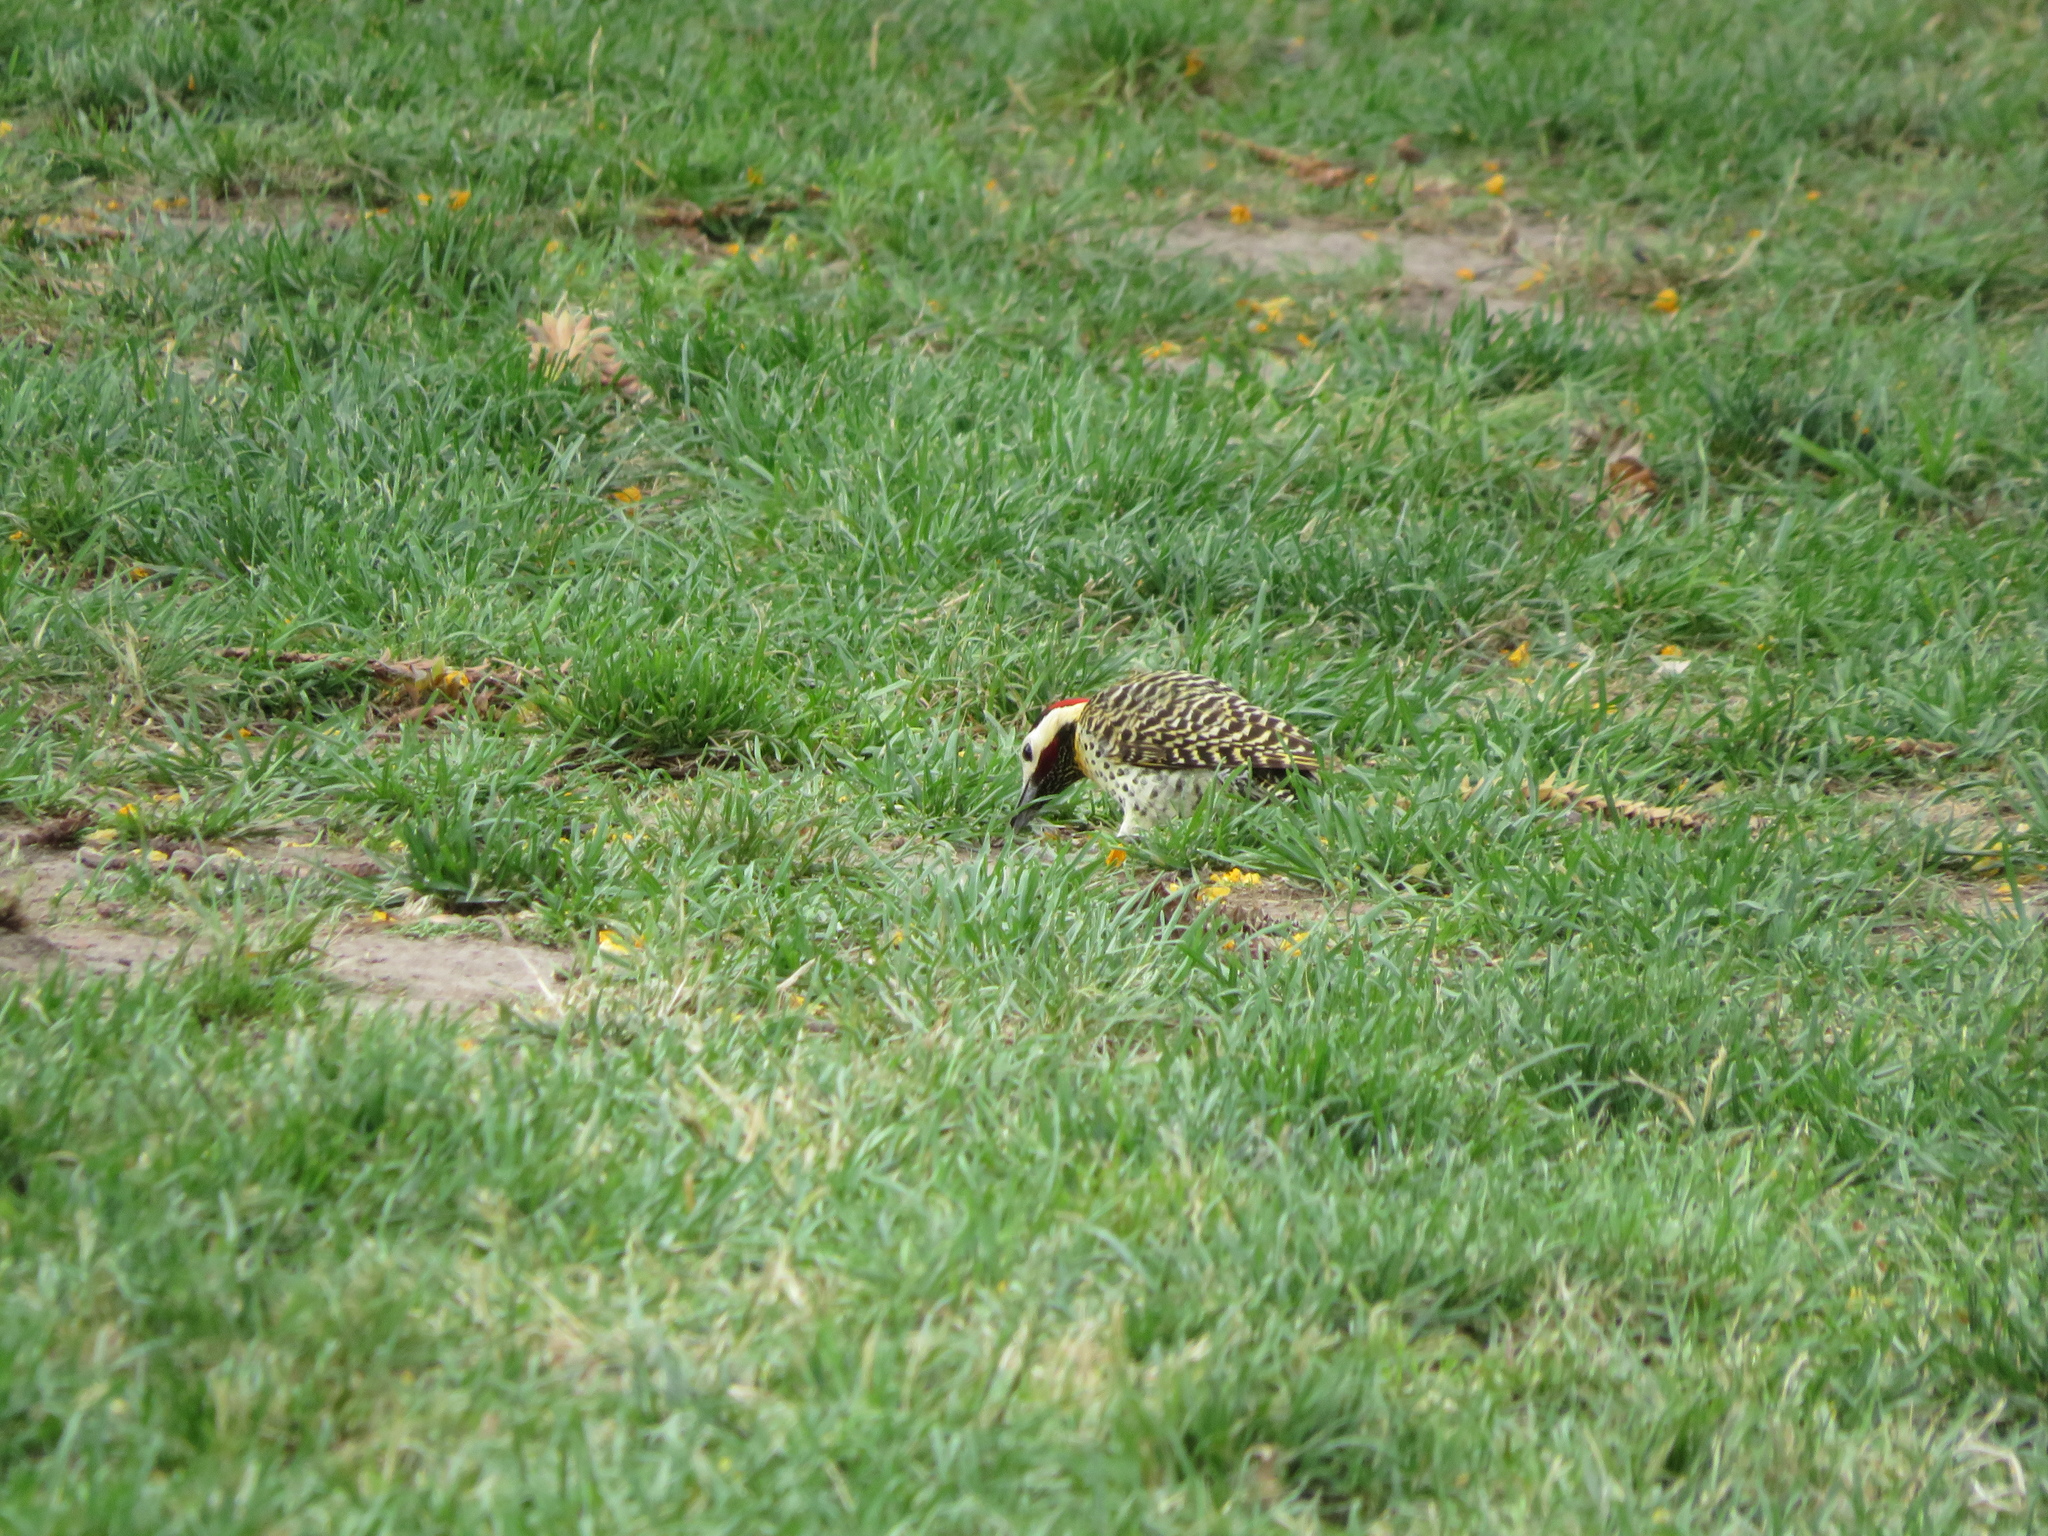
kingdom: Animalia
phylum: Chordata
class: Aves
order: Piciformes
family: Picidae
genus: Colaptes
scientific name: Colaptes melanochloros
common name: Green-barred woodpecker
